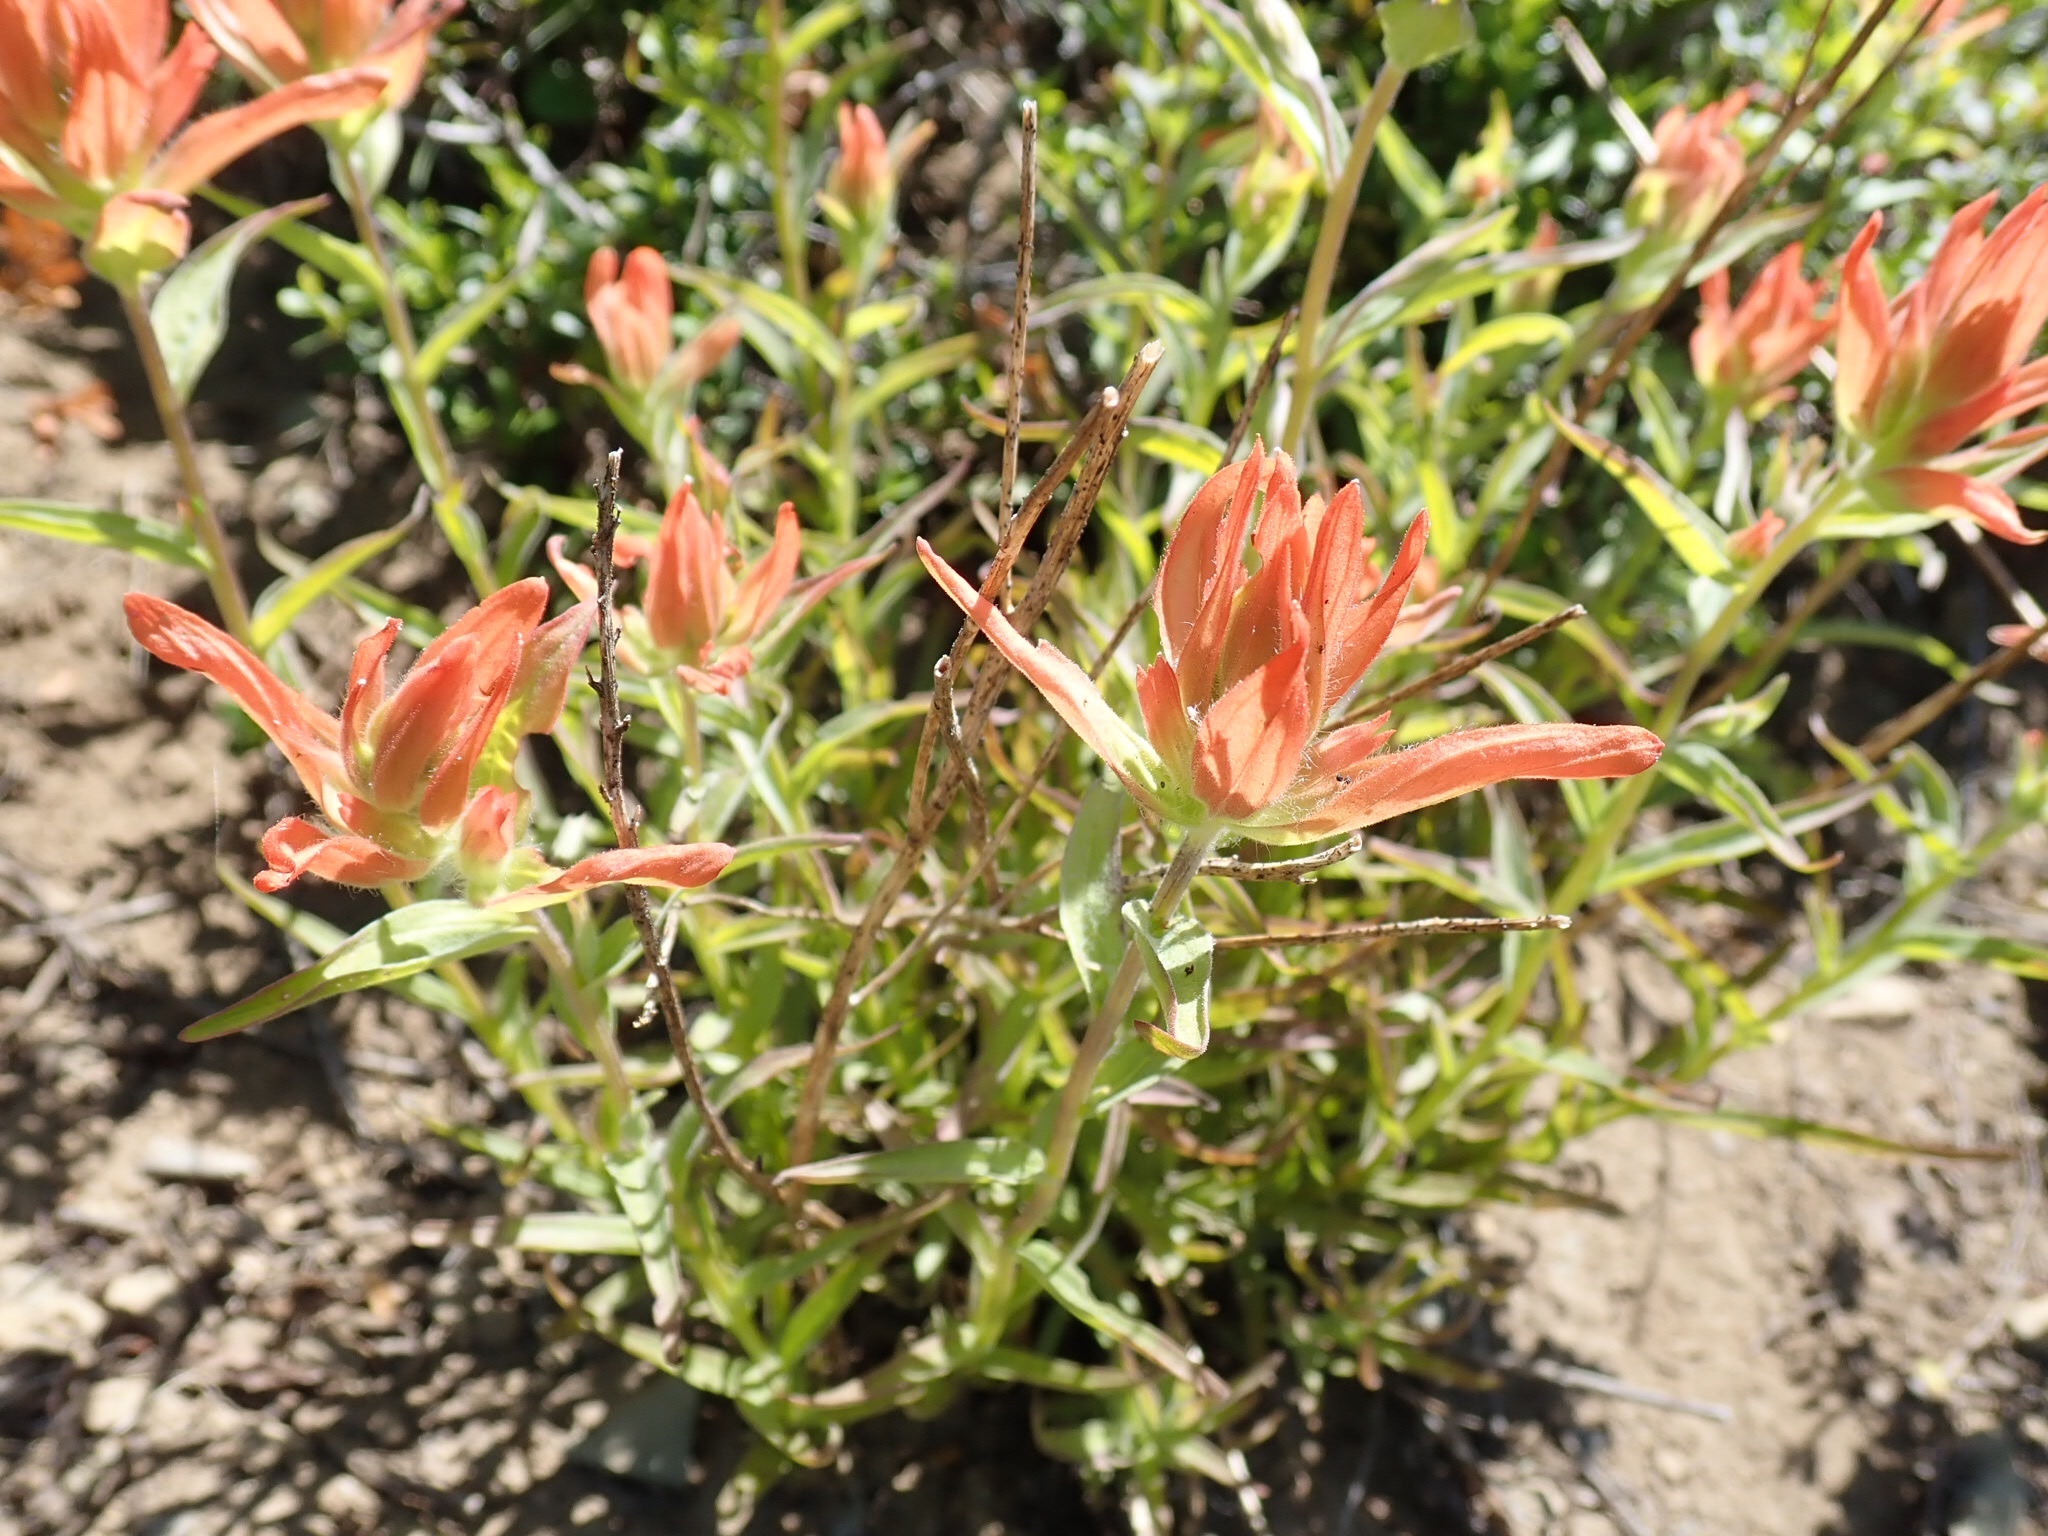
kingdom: Plantae
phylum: Tracheophyta
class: Magnoliopsida
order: Lamiales
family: Orobanchaceae
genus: Castilleja
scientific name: Castilleja miniata
